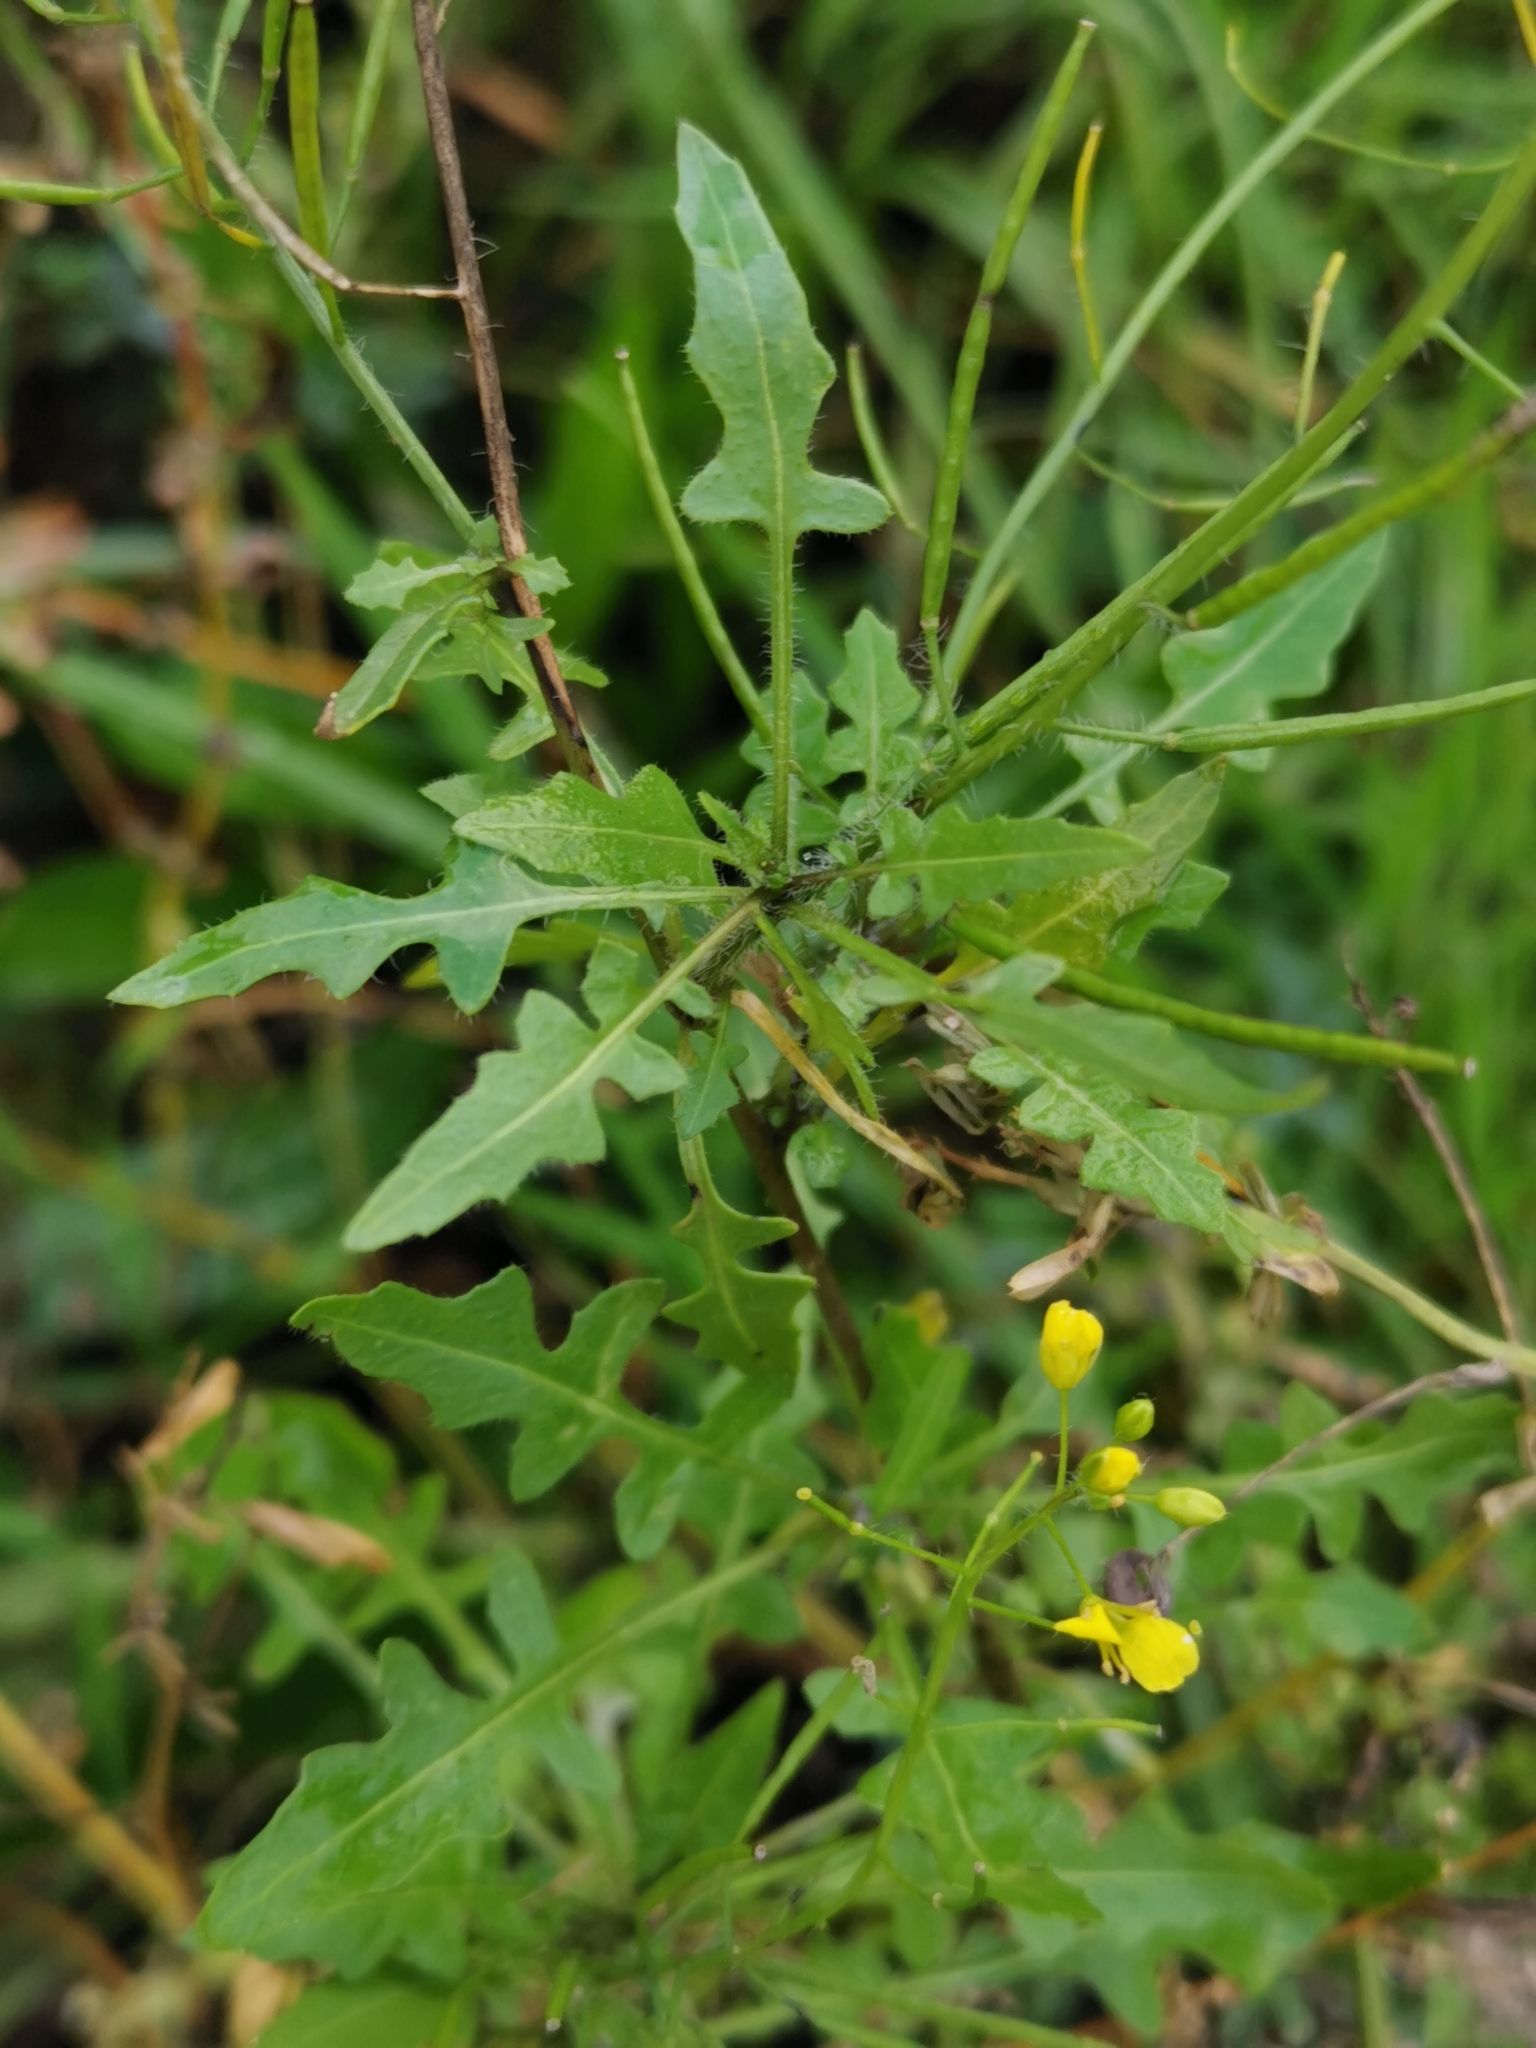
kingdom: Plantae
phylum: Tracheophyta
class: Magnoliopsida
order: Brassicales
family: Brassicaceae
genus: Sisymbrium
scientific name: Sisymbrium loeselii
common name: False london-rocket
